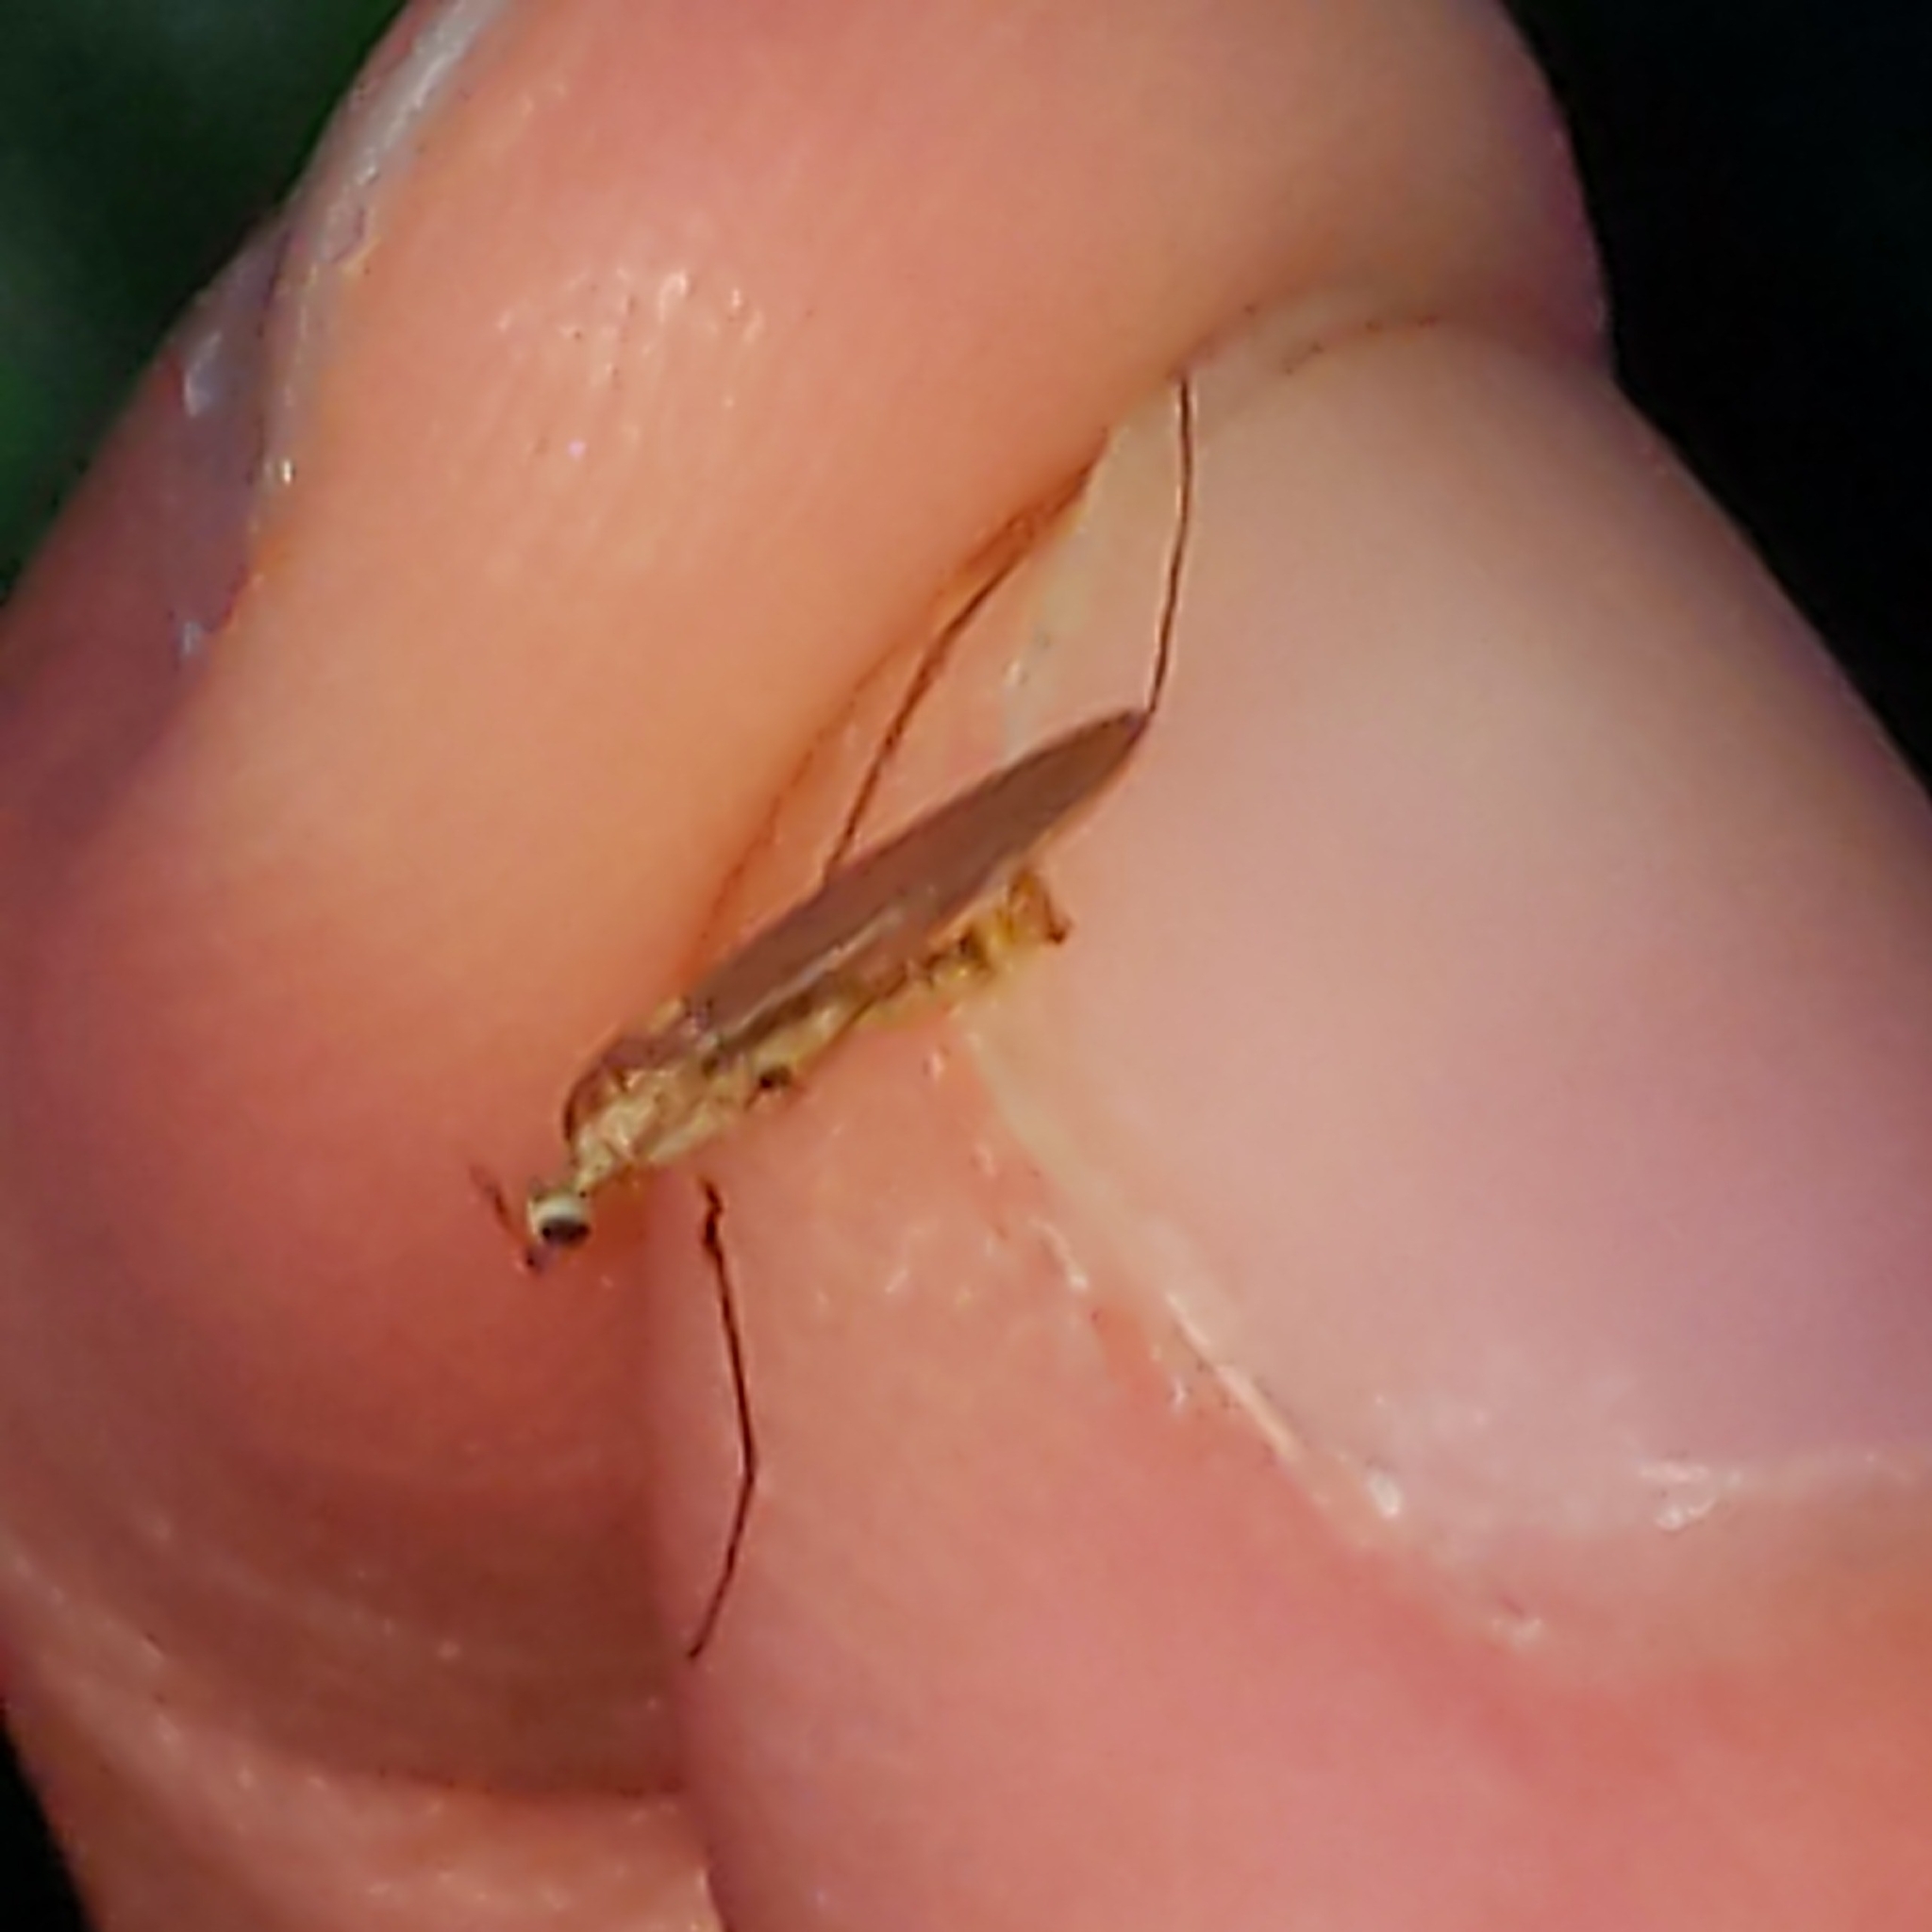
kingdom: Animalia
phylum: Arthropoda
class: Insecta
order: Diptera
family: Limoniidae
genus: Erioptera
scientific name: Erioptera septemtrionis
